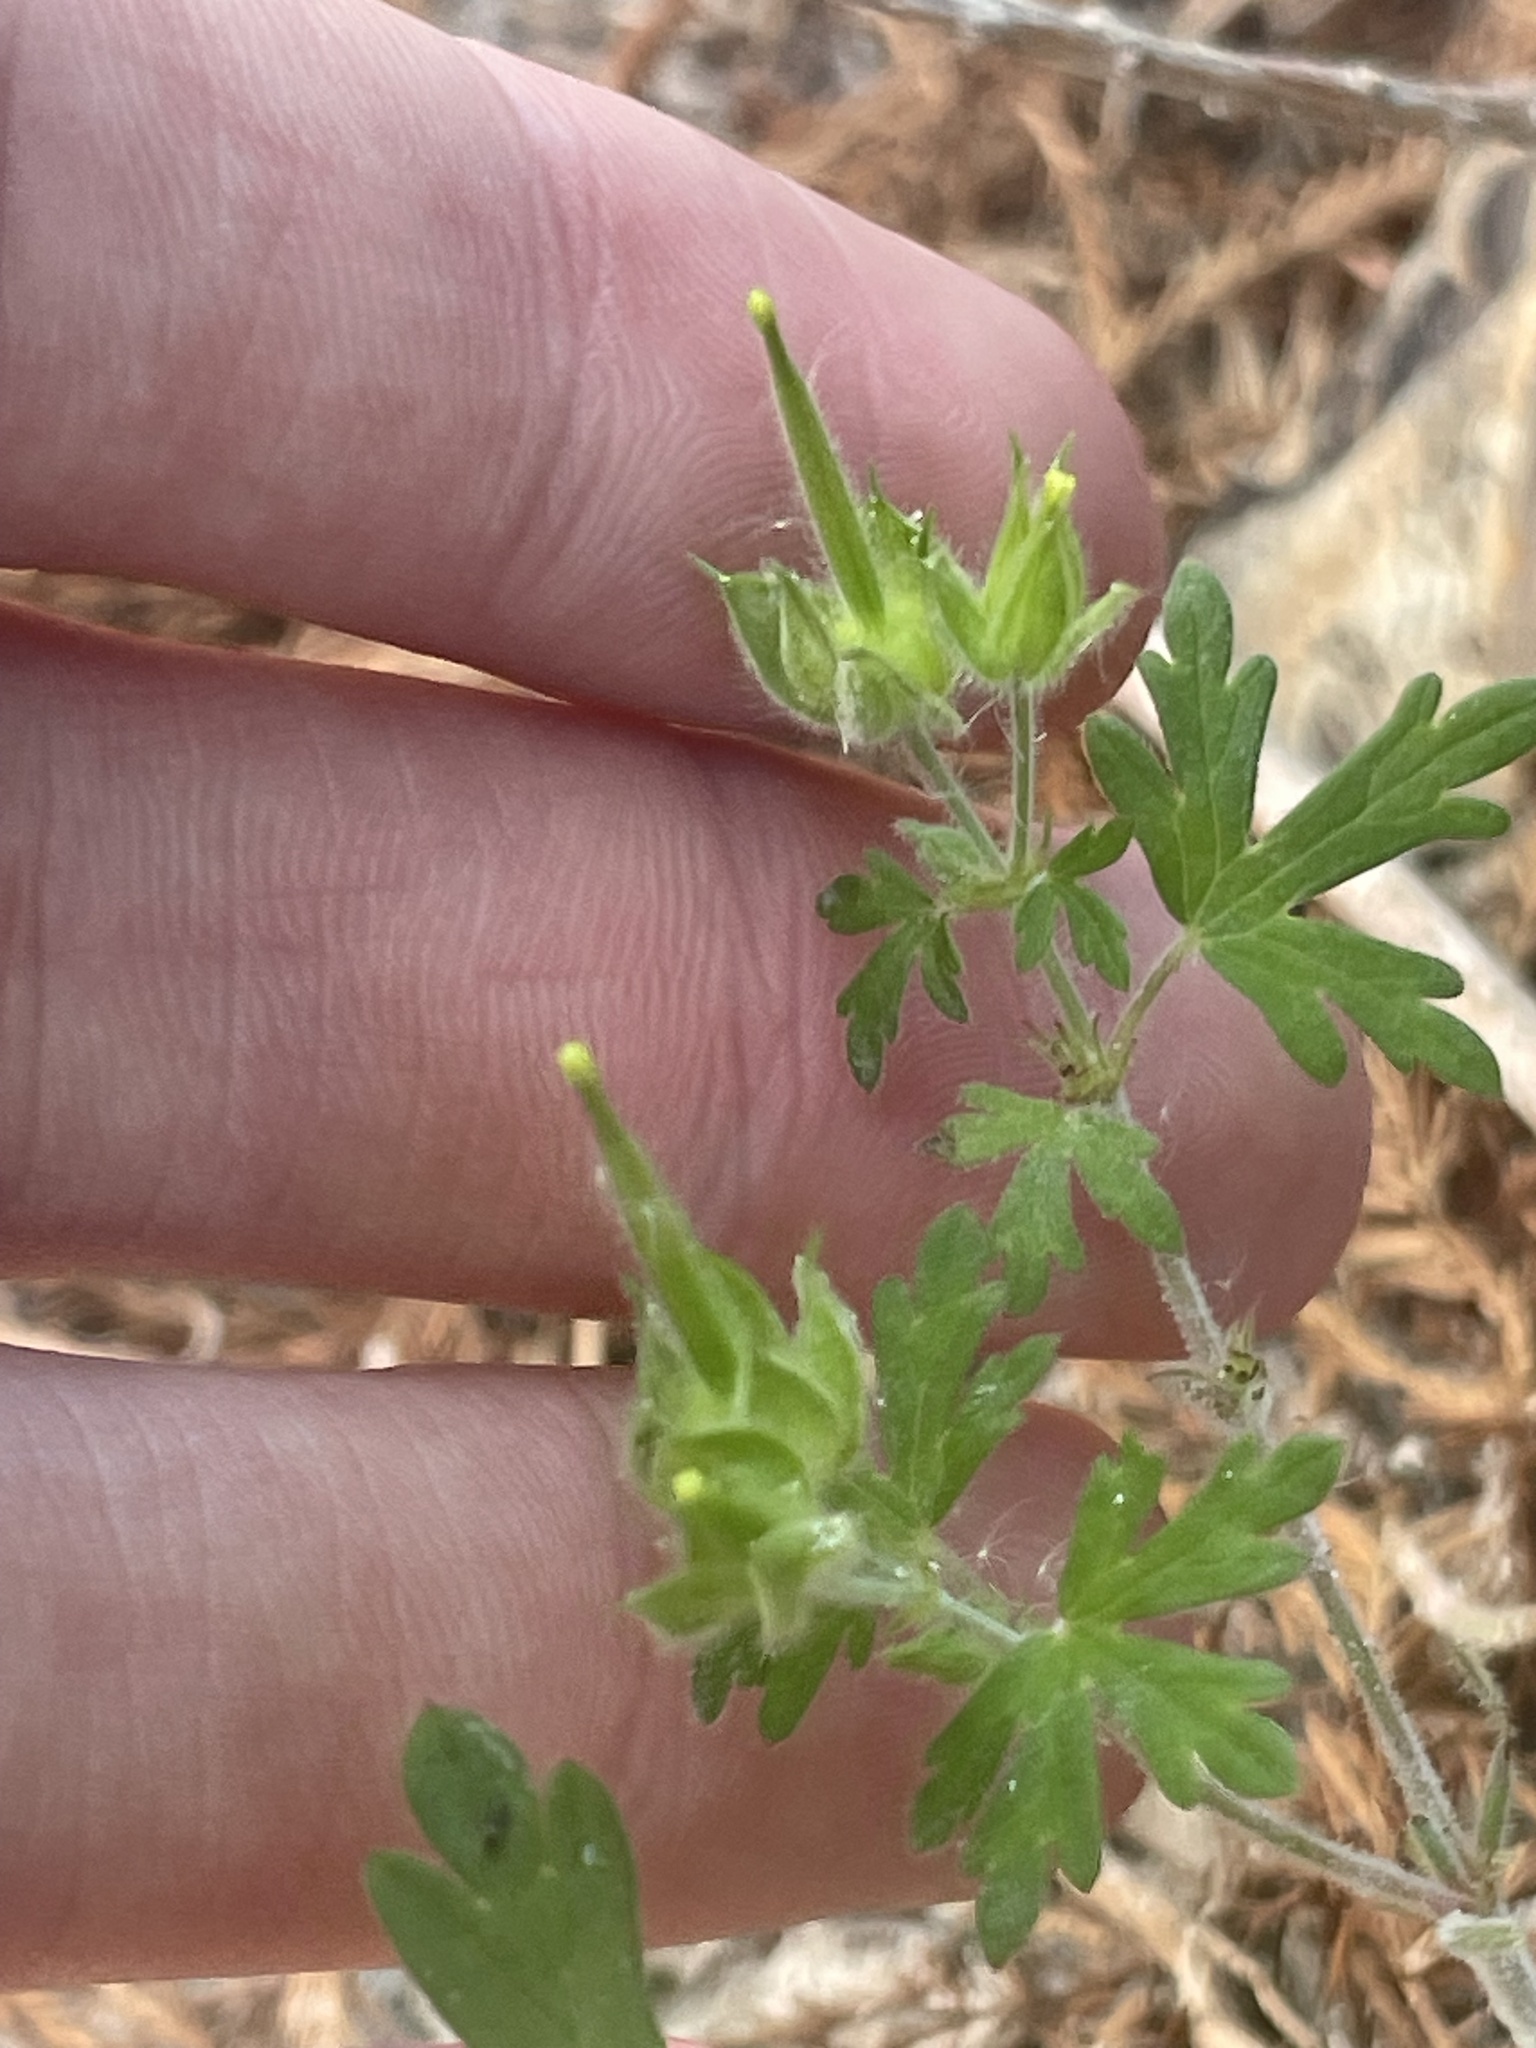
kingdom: Plantae
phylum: Tracheophyta
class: Magnoliopsida
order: Geraniales
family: Geraniaceae
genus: Geranium
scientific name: Geranium carolinianum
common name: Carolina crane's-bill
